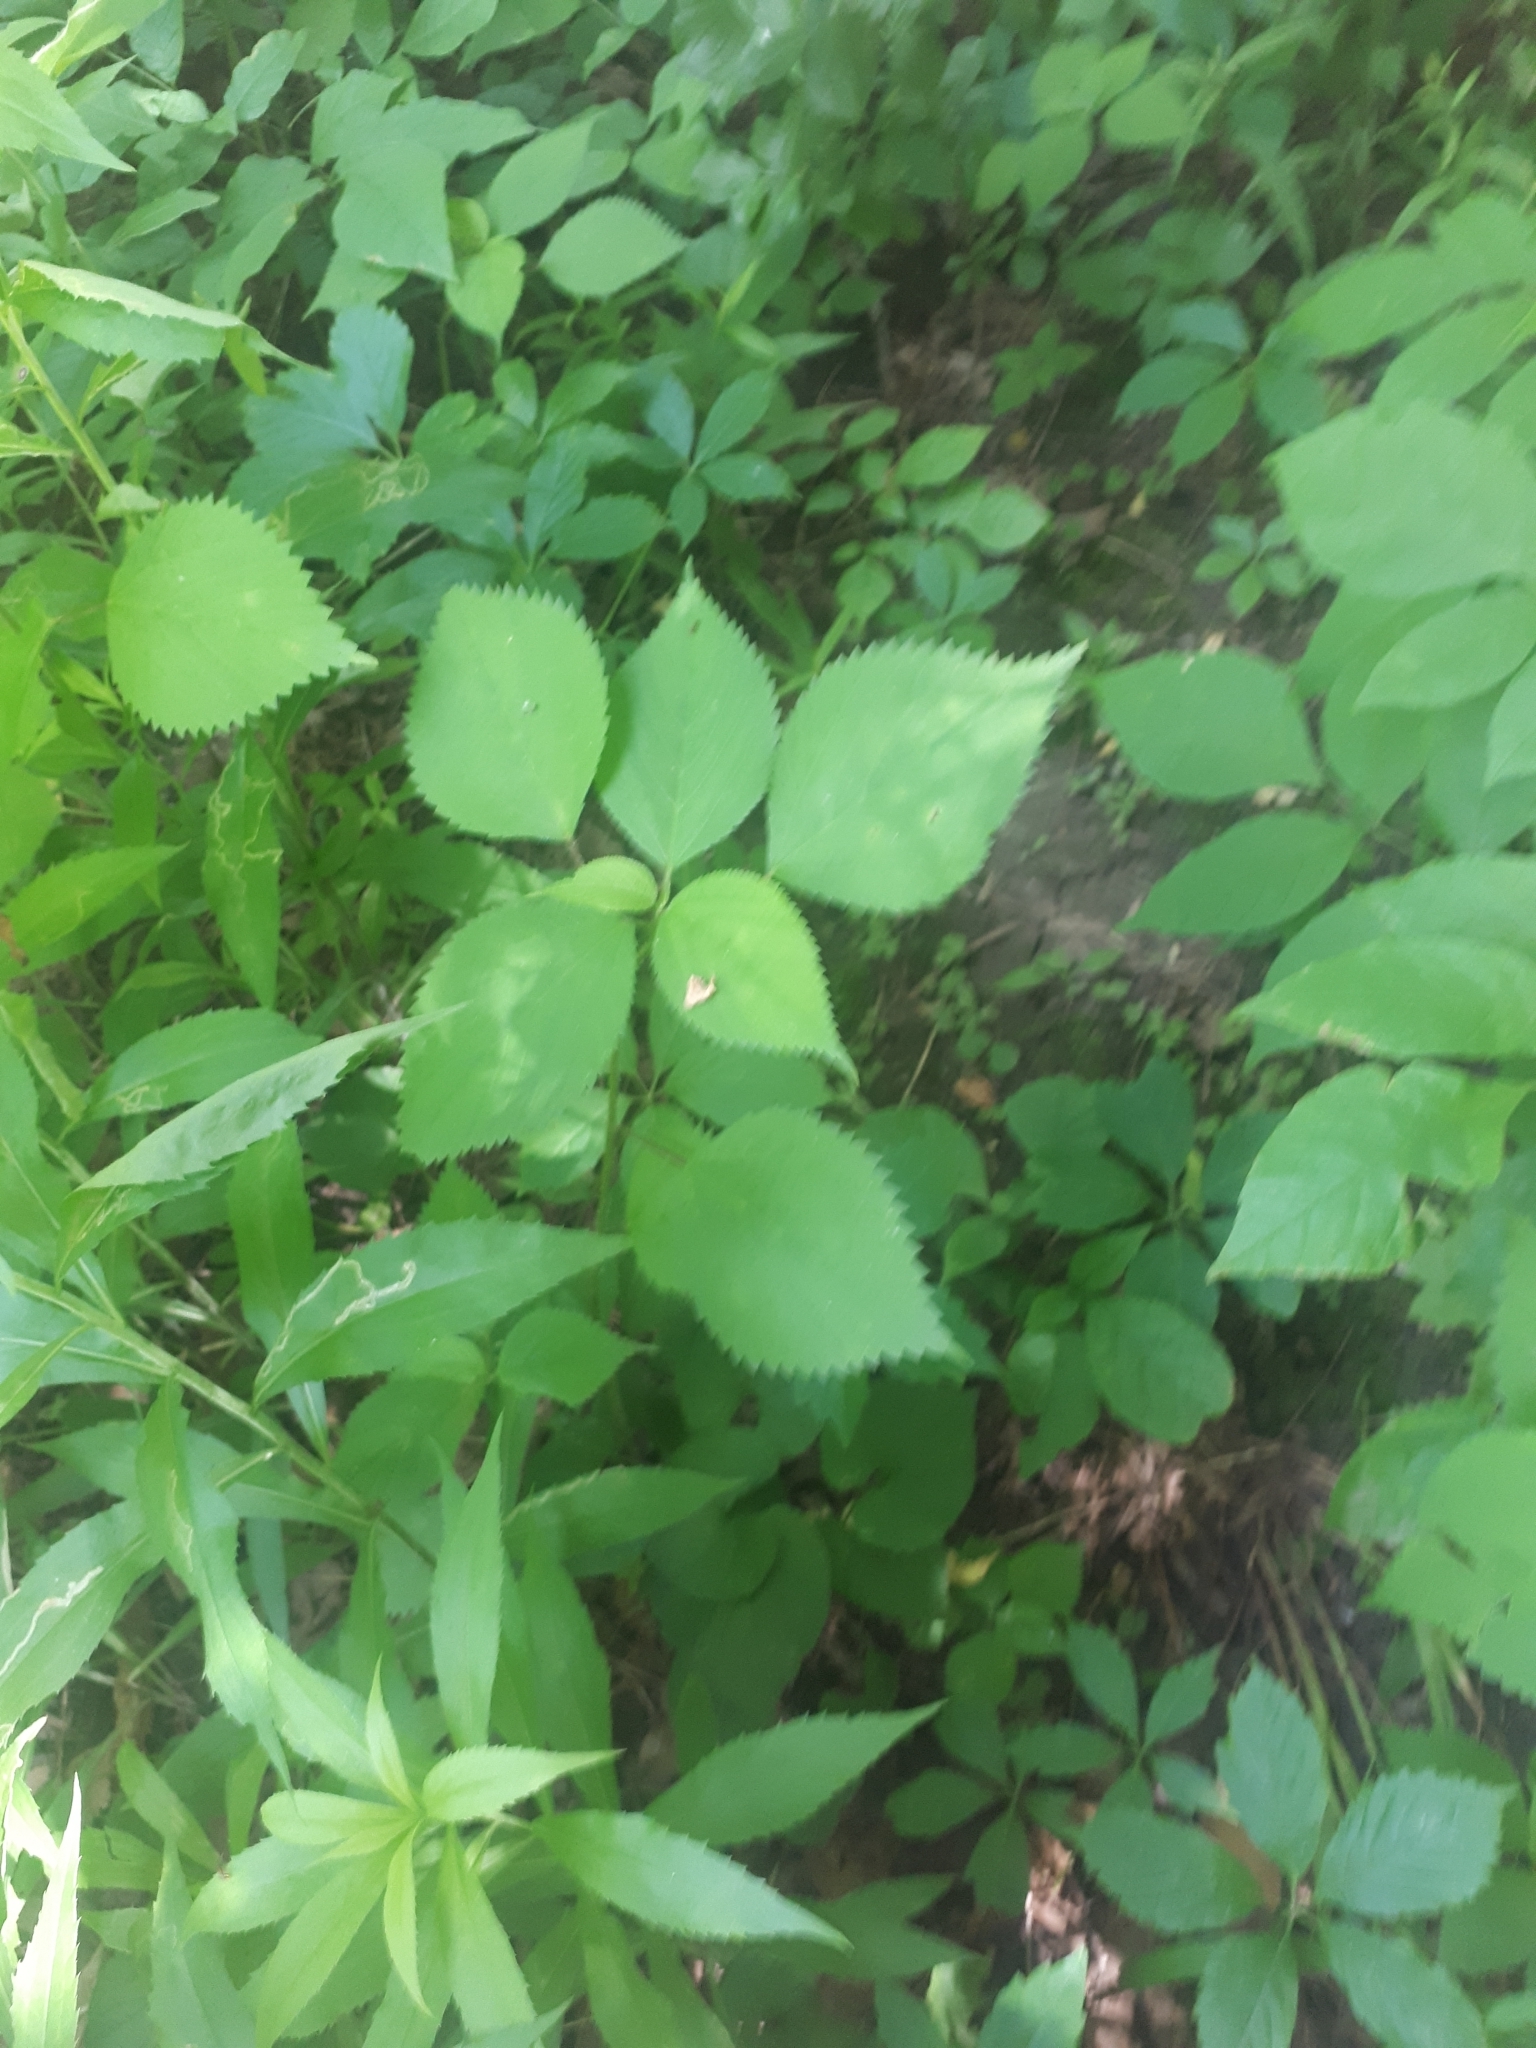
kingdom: Plantae
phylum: Tracheophyta
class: Magnoliopsida
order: Rosales
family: Urticaceae
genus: Laportea
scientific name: Laportea canadensis
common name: Canada nettle
